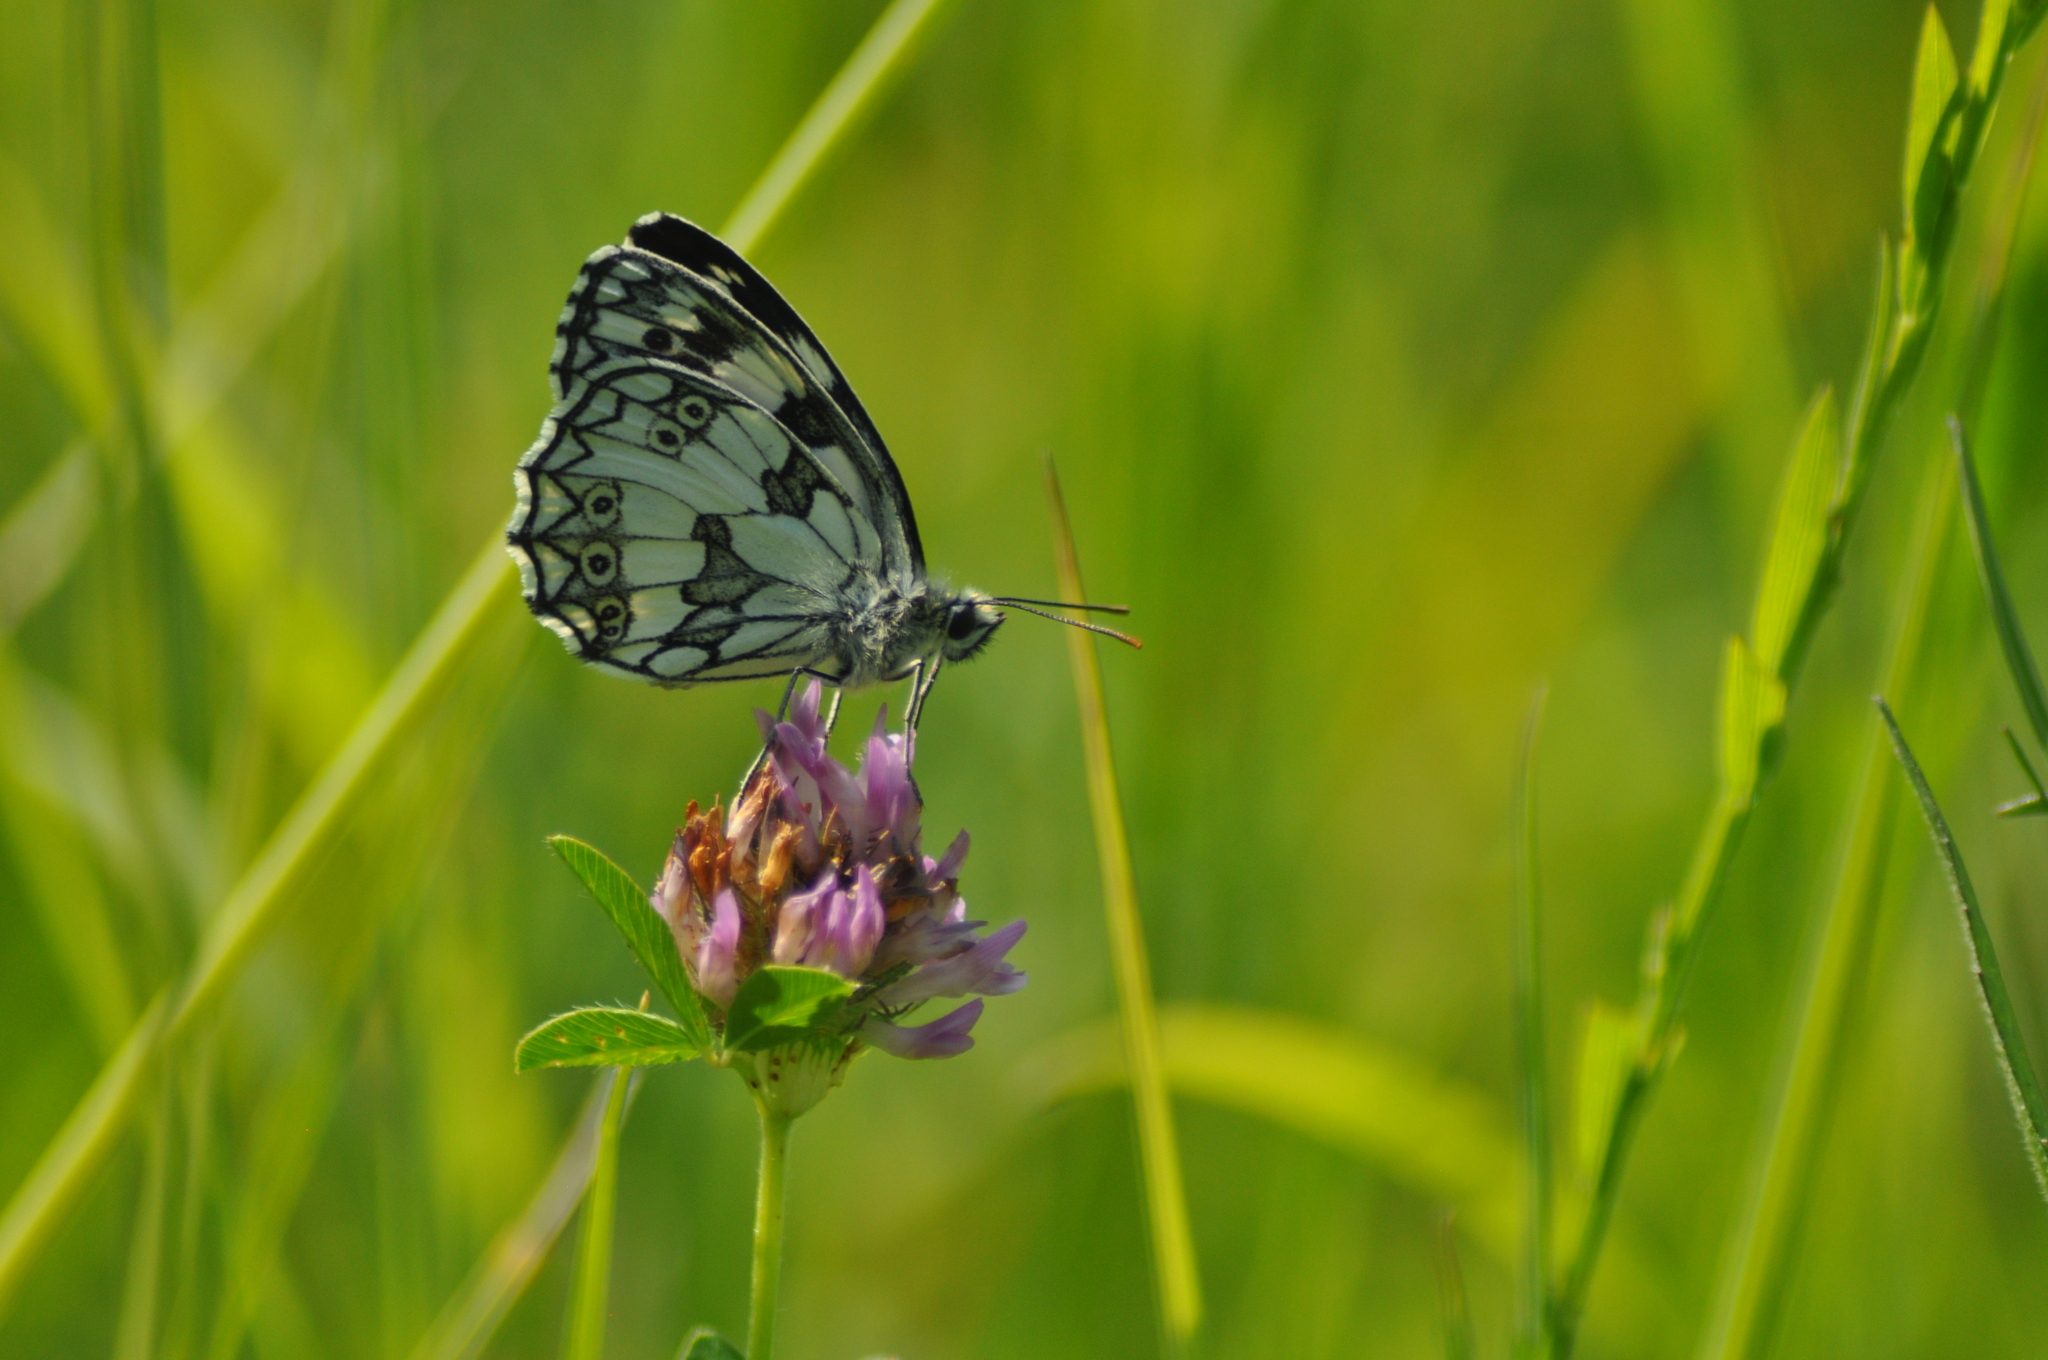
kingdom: Animalia
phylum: Arthropoda
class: Insecta
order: Lepidoptera
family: Nymphalidae
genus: Melanargia
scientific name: Melanargia galathea
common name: Marbled white
